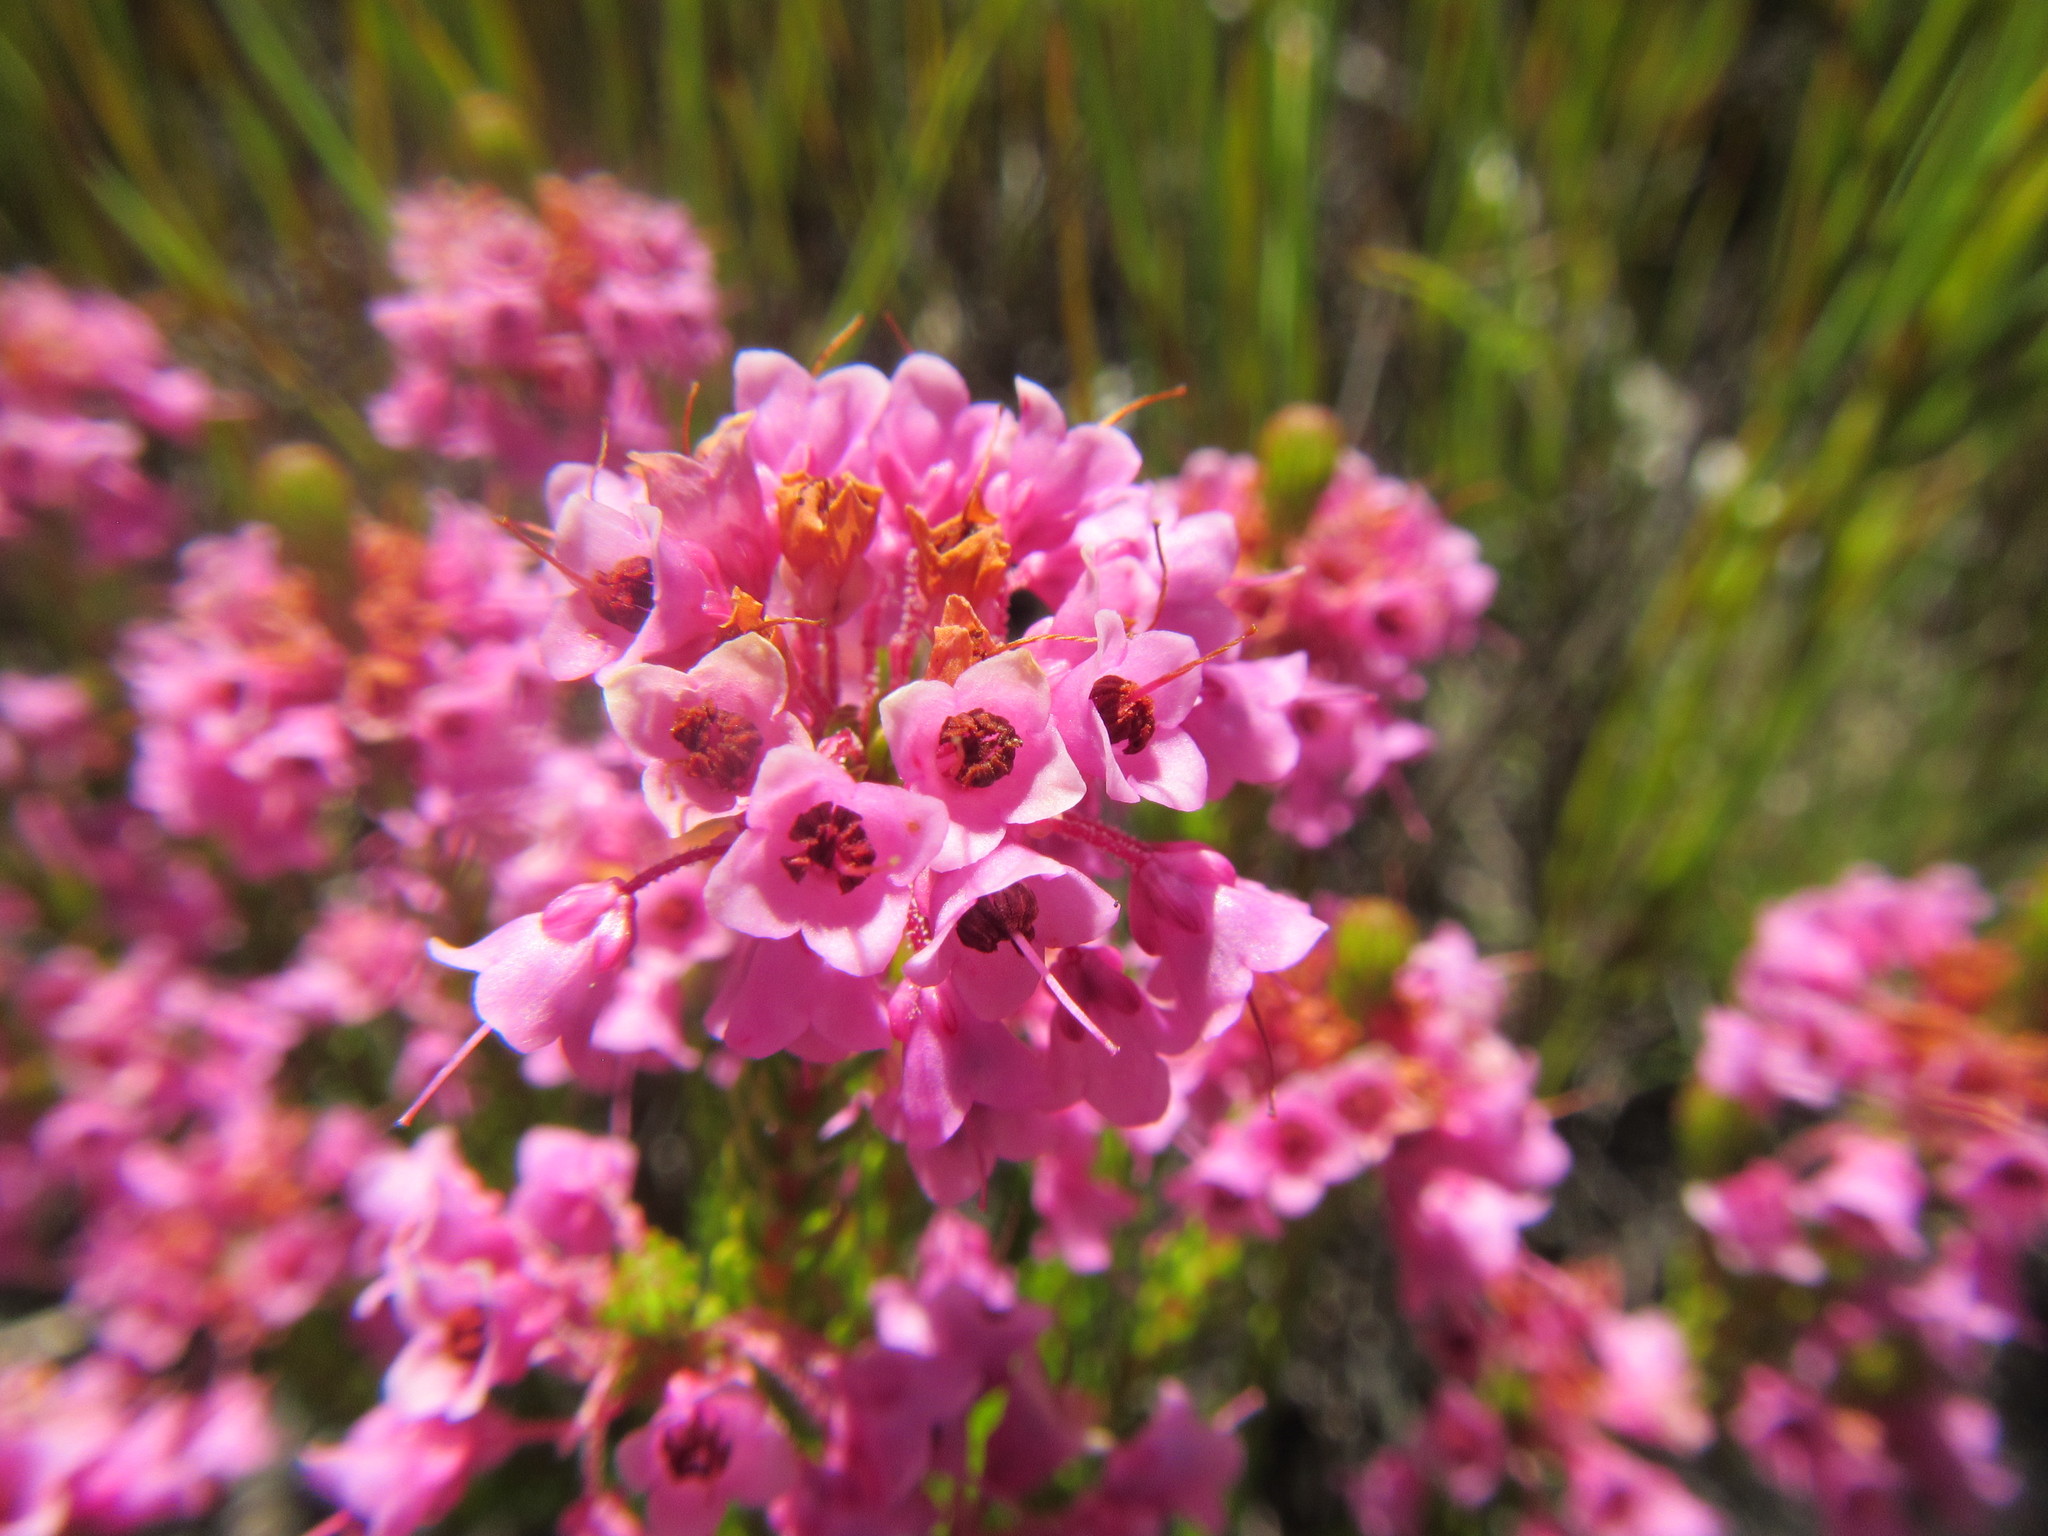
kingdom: Plantae
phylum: Tracheophyta
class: Magnoliopsida
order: Ericales
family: Ericaceae
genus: Erica
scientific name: Erica seriphiifolia
